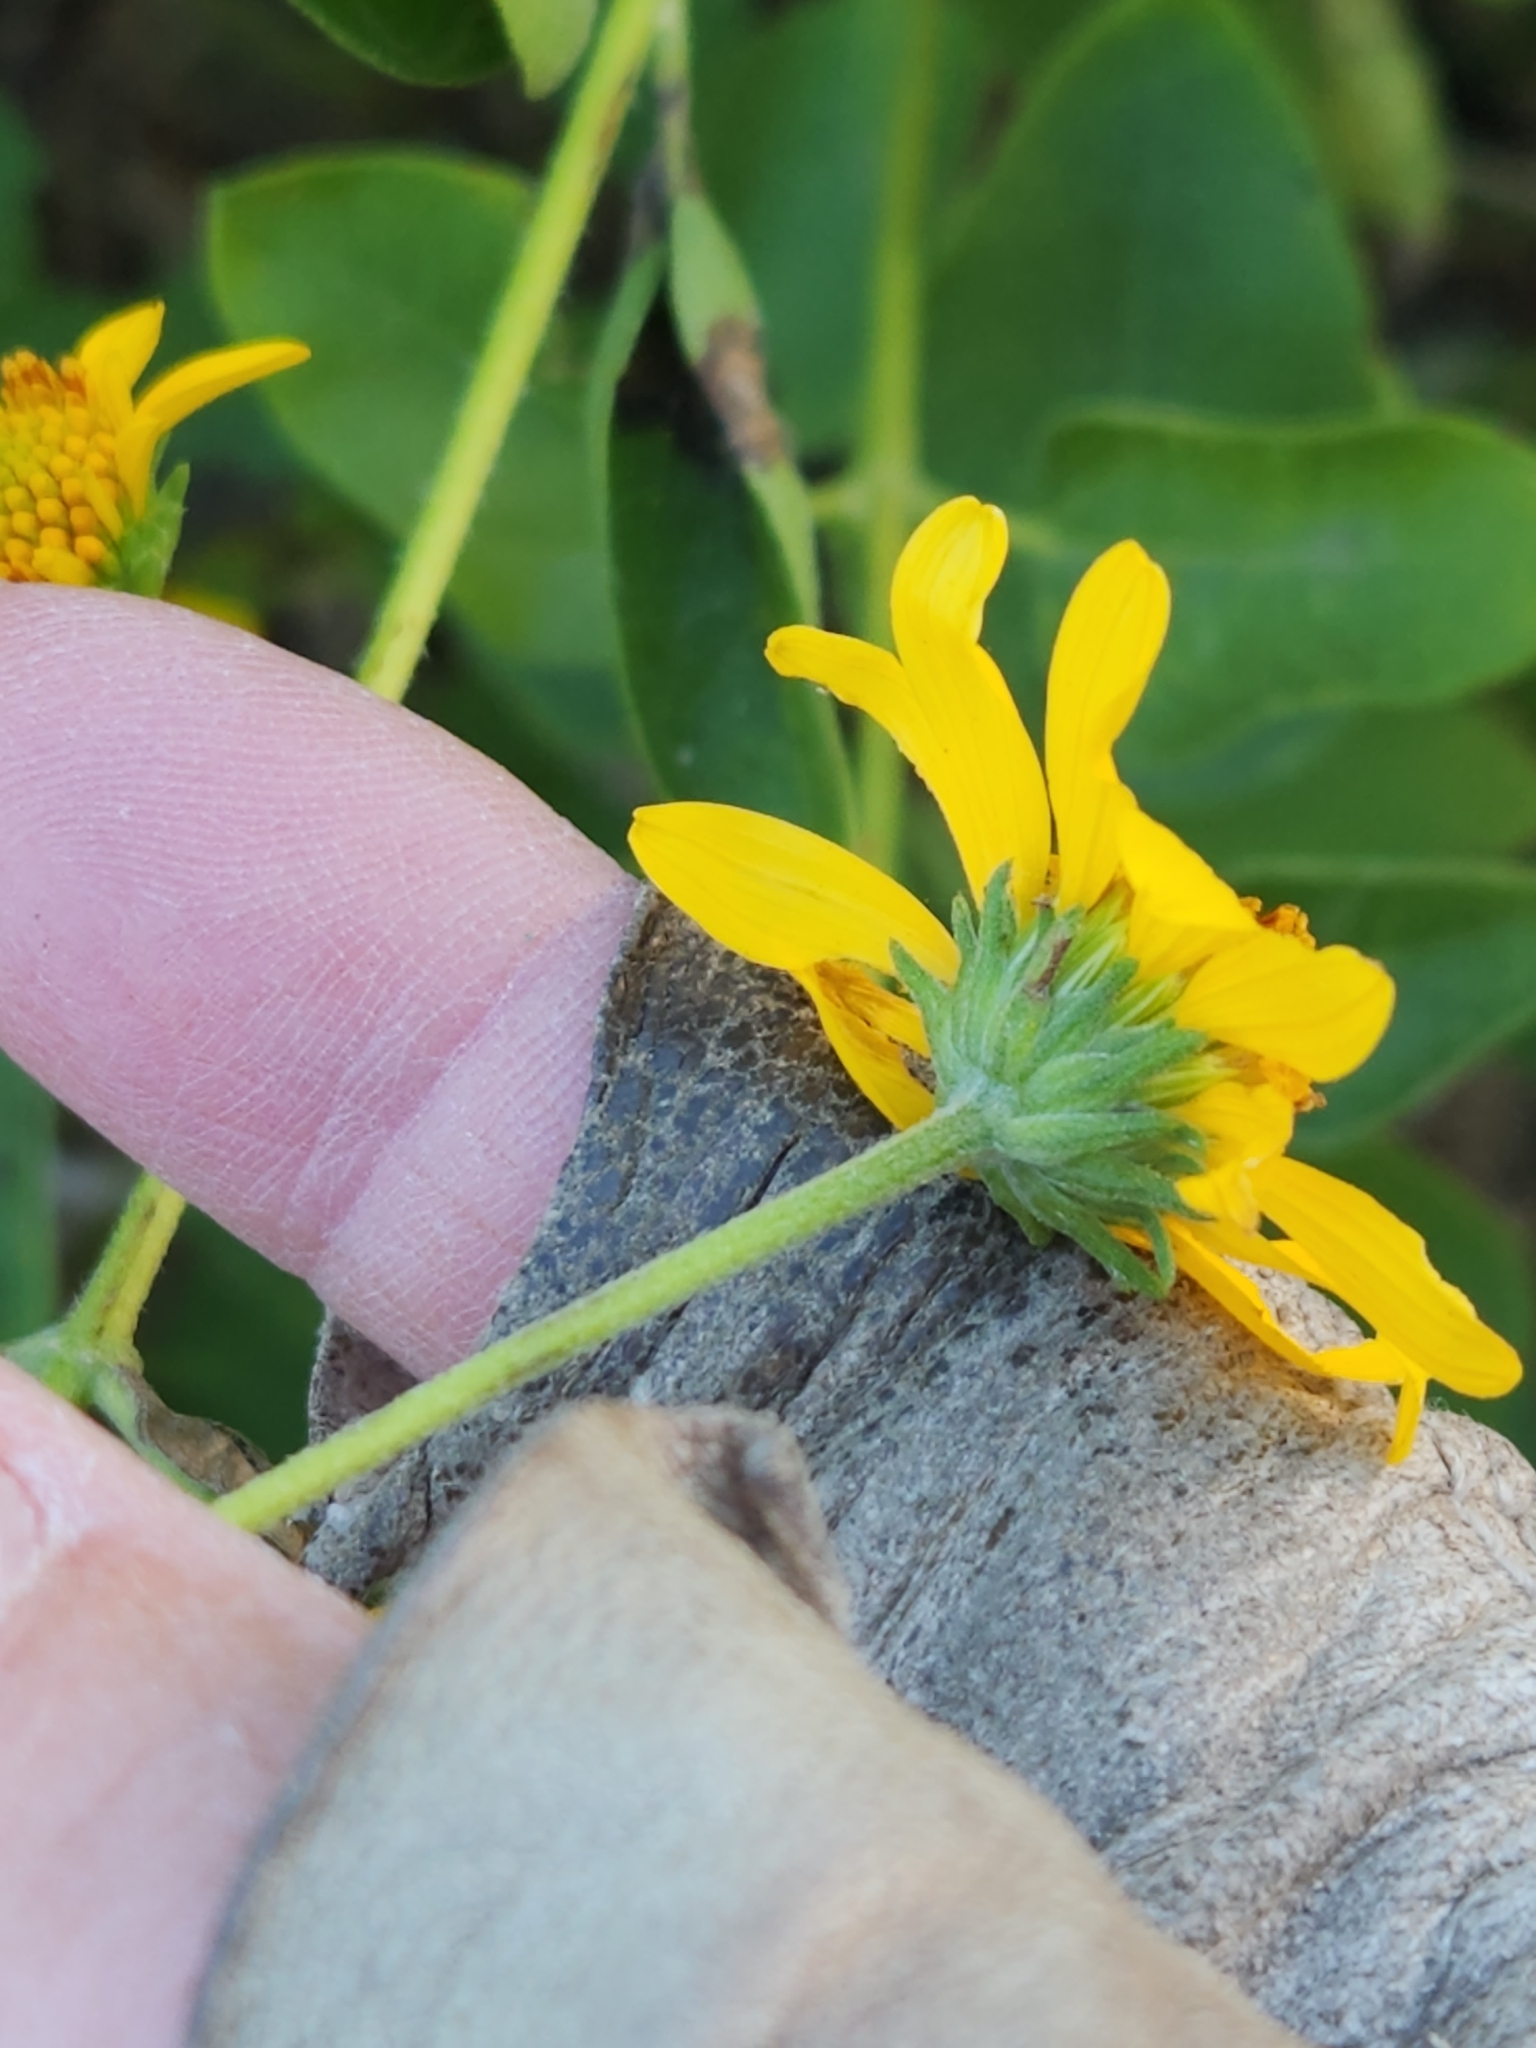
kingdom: Plantae
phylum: Tracheophyta
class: Magnoliopsida
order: Asterales
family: Asteraceae
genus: Viguiera
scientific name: Viguiera dentata
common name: Toothleaf
